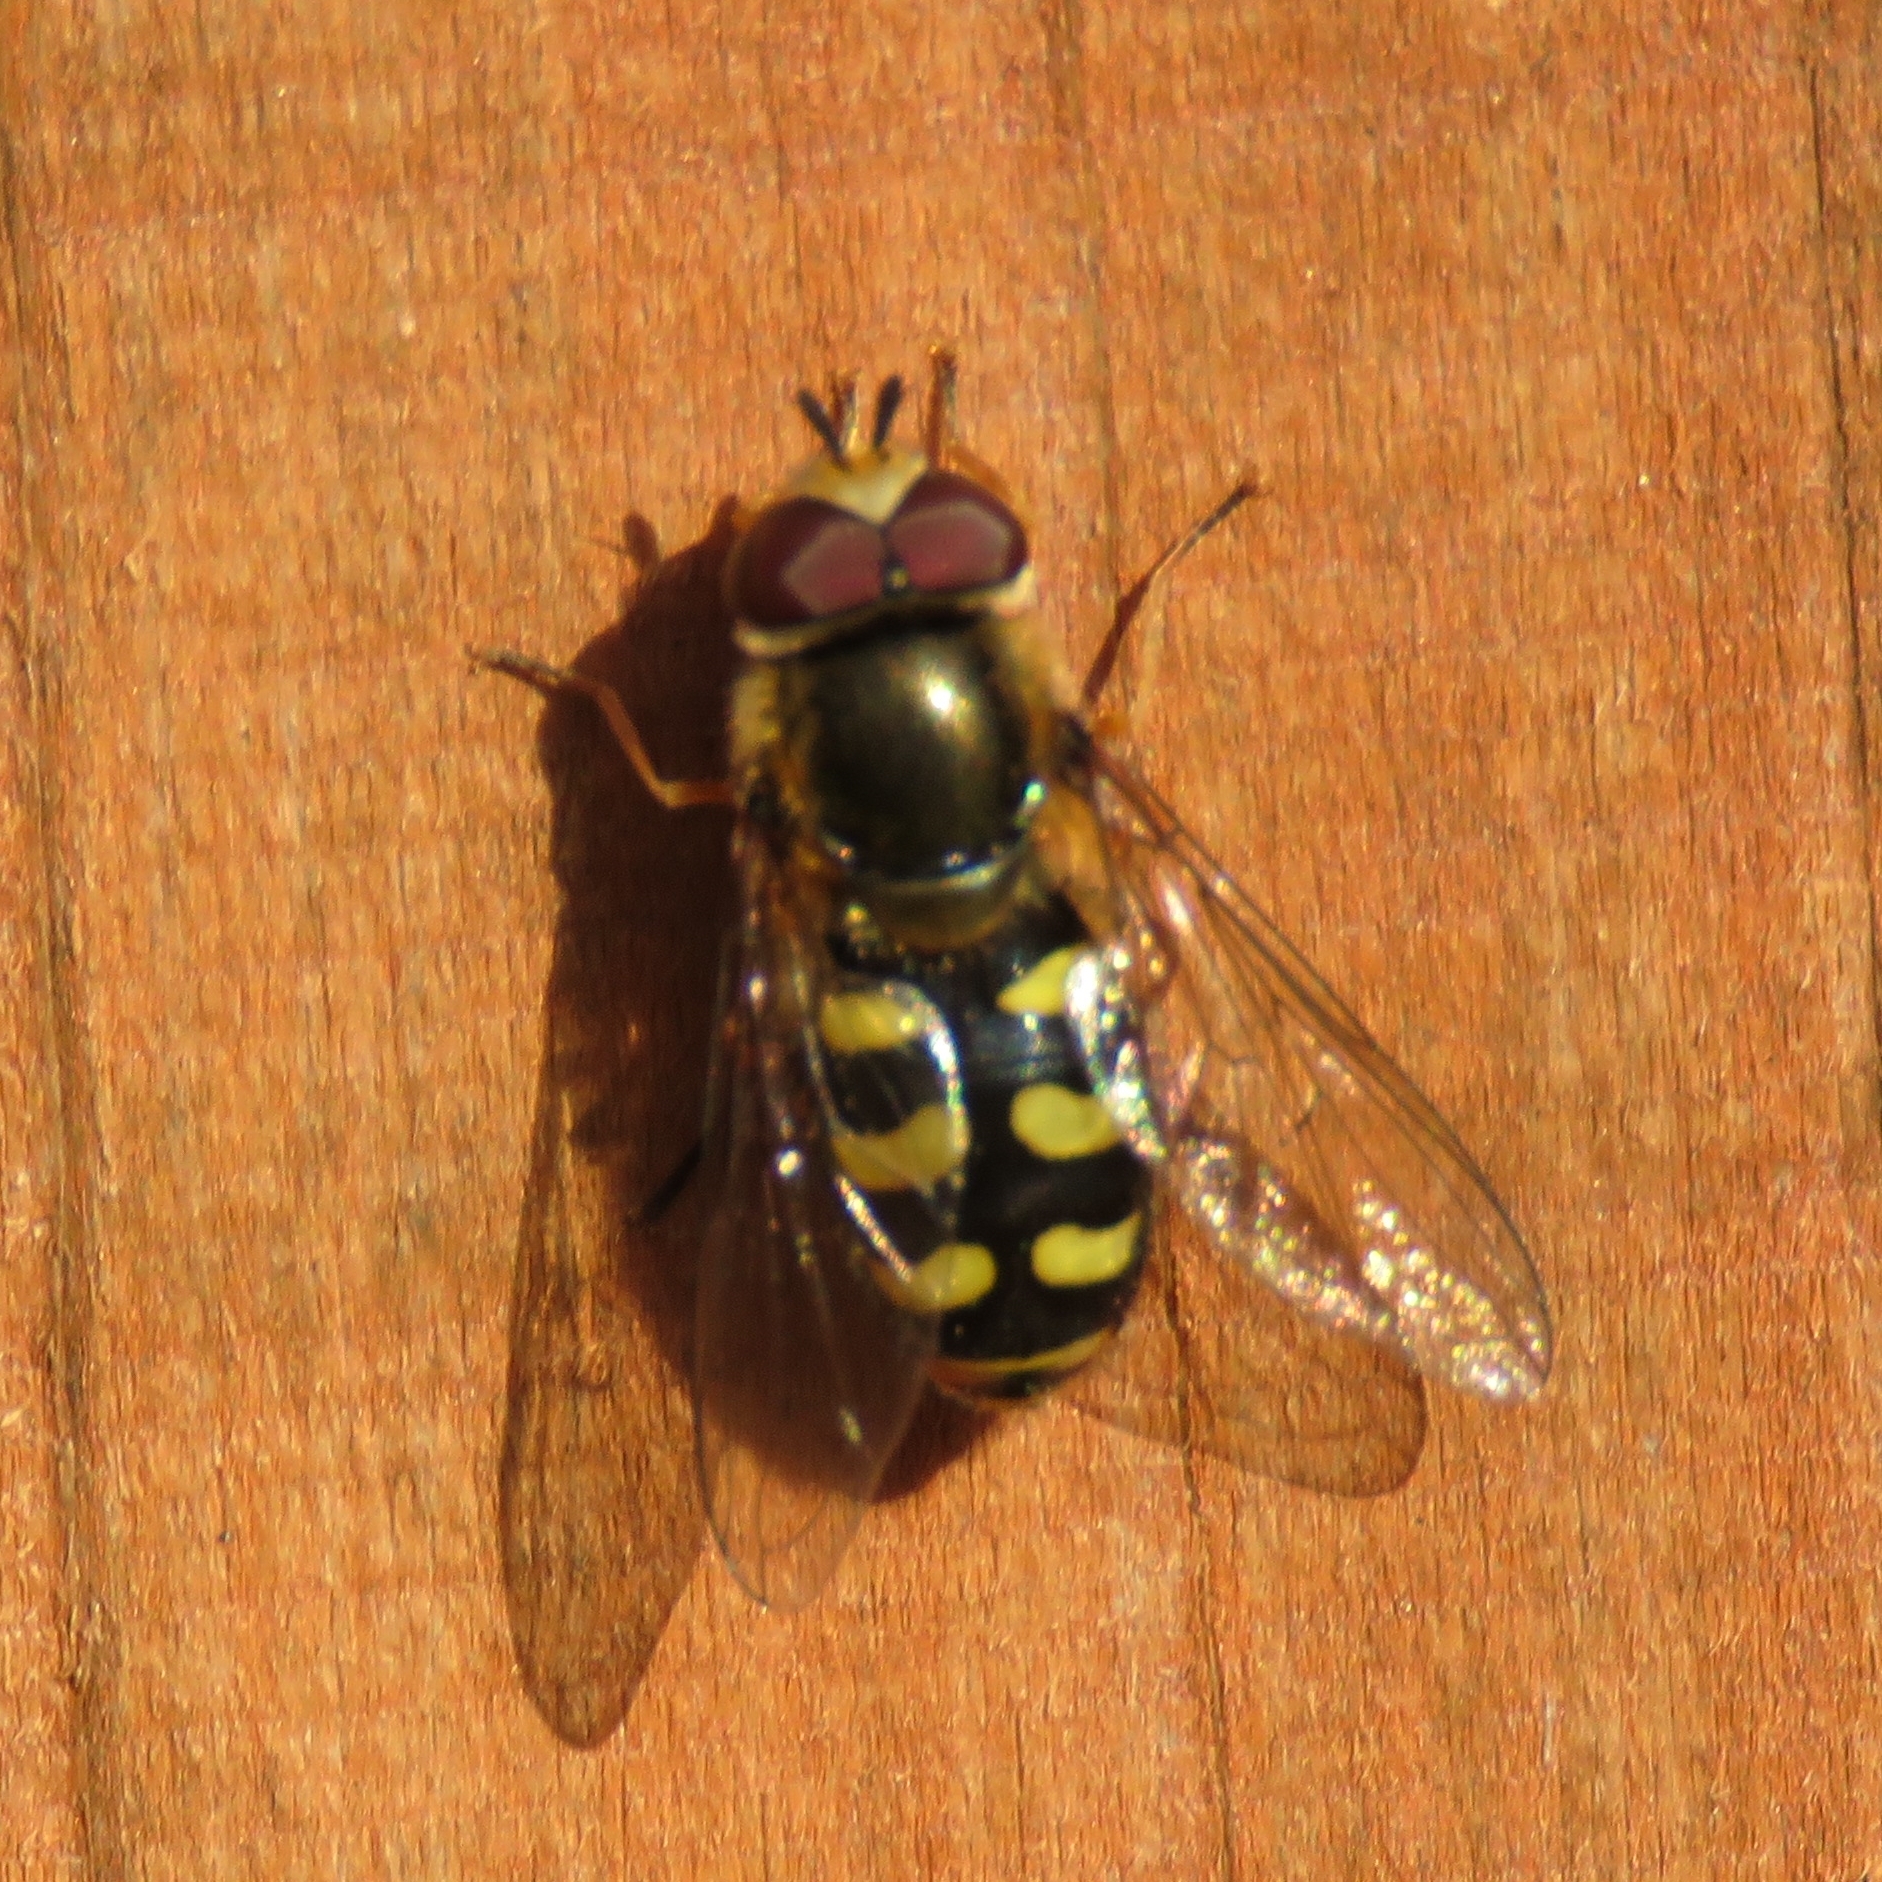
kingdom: Animalia
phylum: Arthropoda
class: Insecta
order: Diptera
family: Syrphidae
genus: Eupeodes
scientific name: Eupeodes
